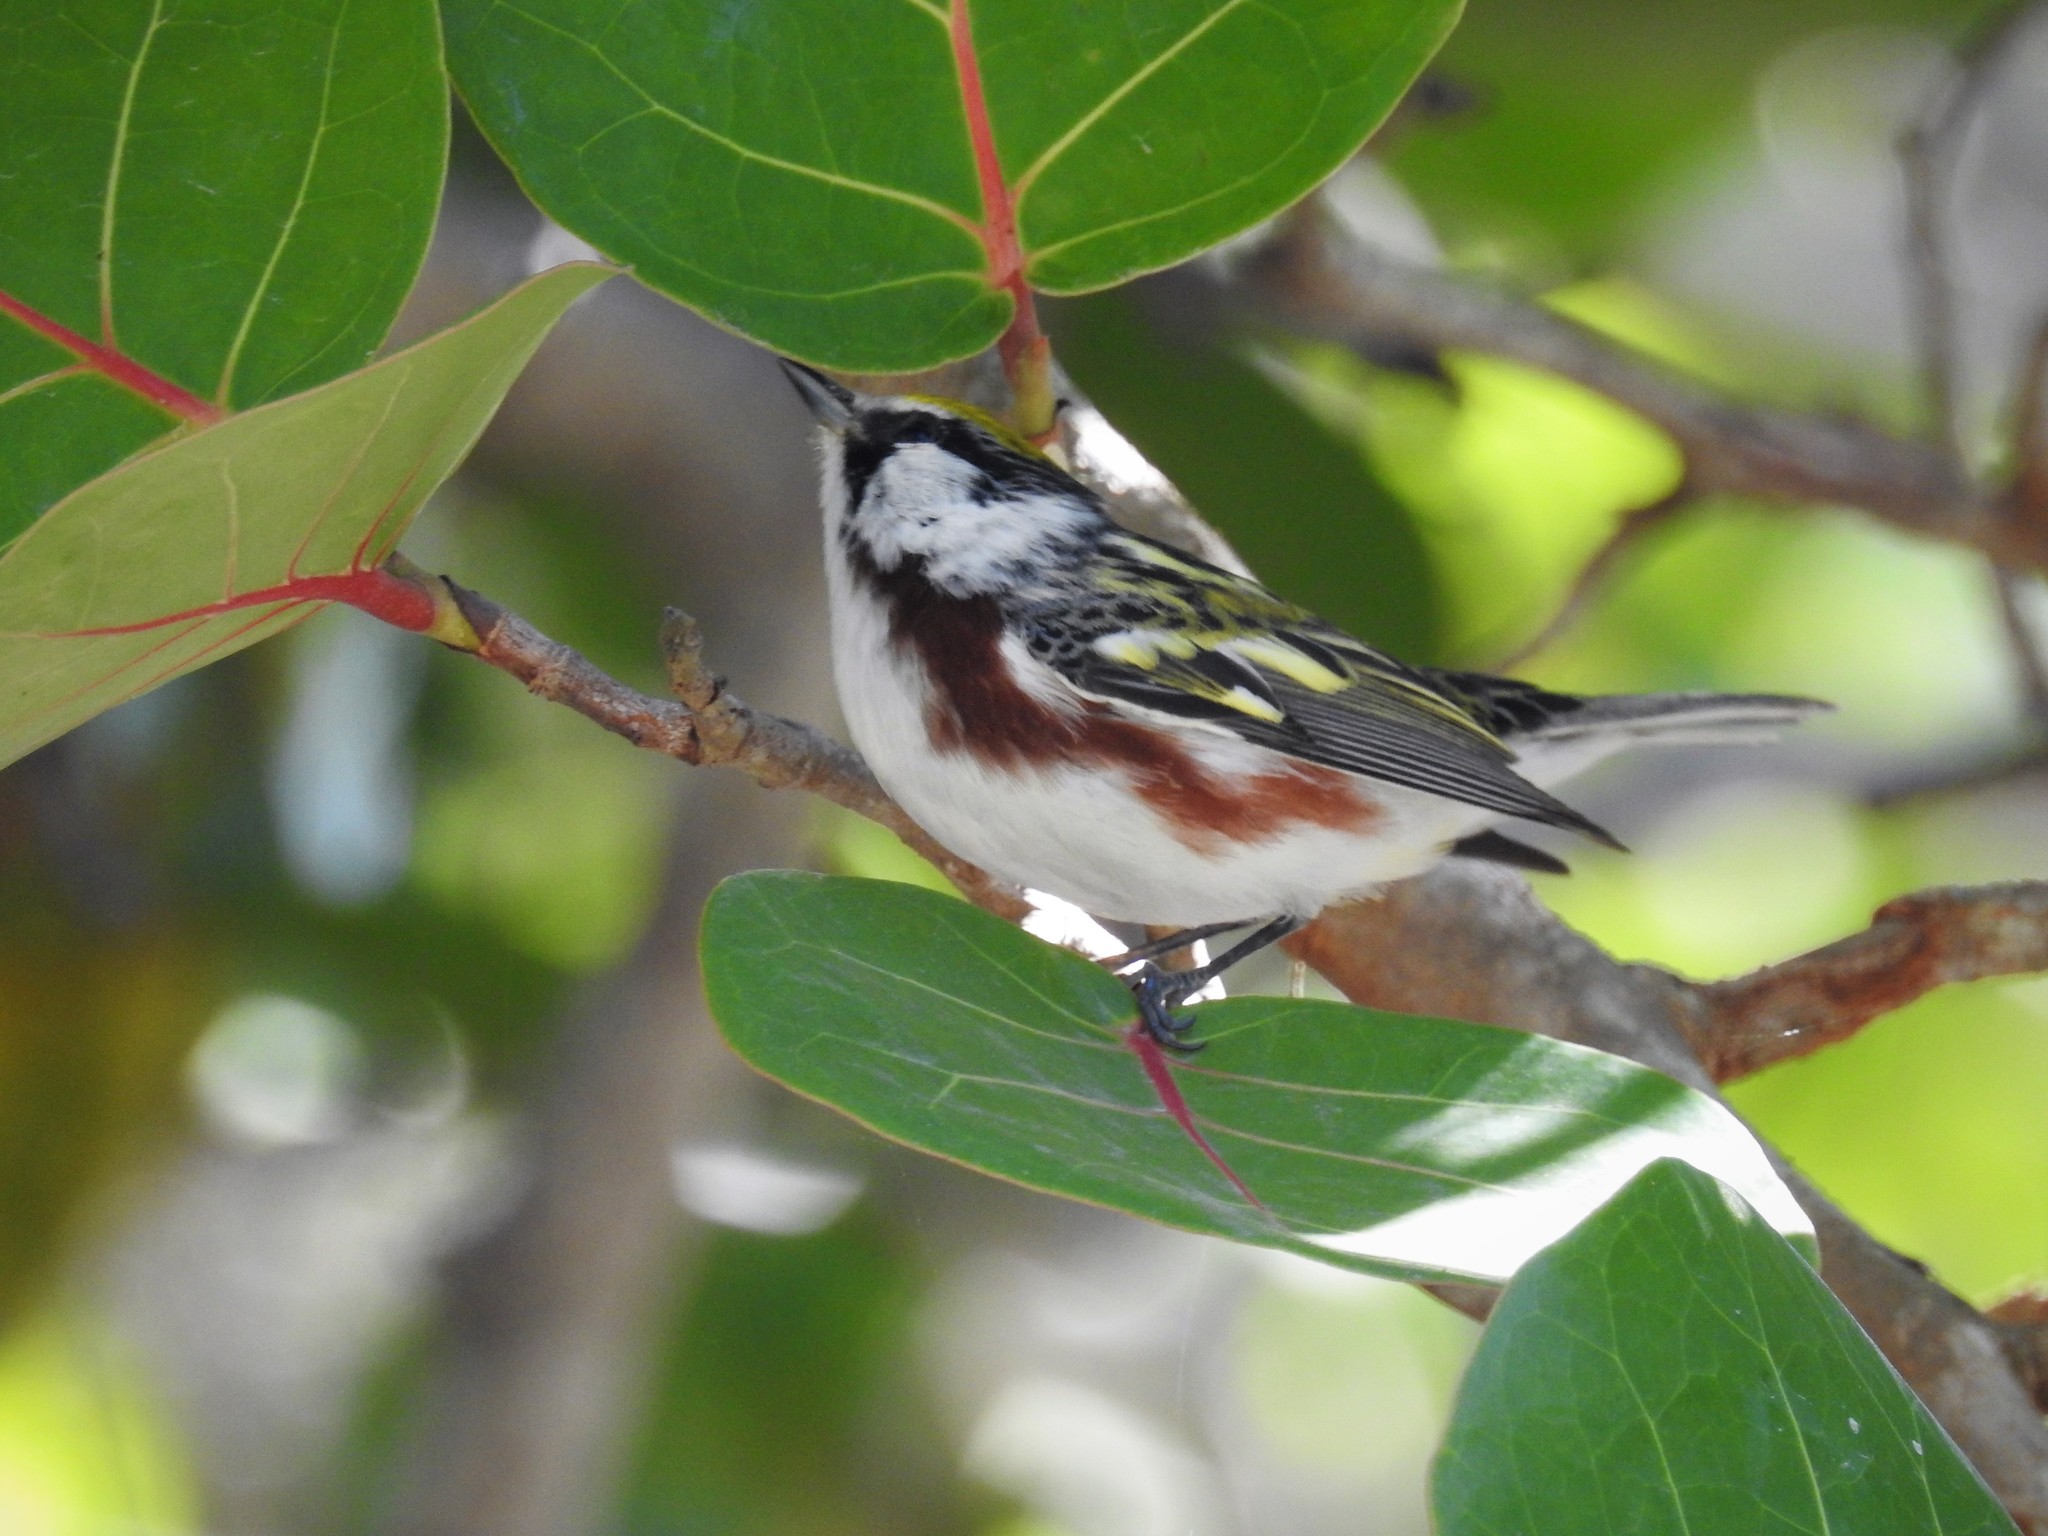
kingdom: Animalia
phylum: Chordata
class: Aves
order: Passeriformes
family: Parulidae
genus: Setophaga
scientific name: Setophaga pensylvanica
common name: Chestnut-sided warbler
